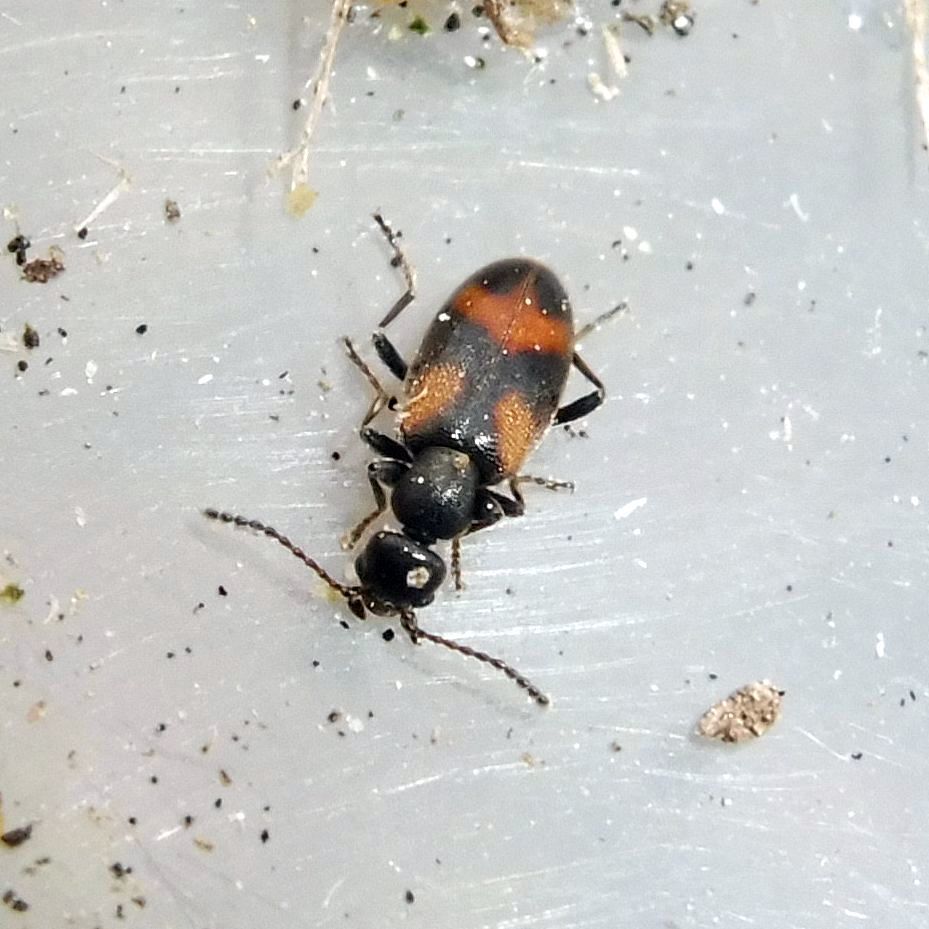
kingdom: Animalia
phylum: Arthropoda
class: Insecta
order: Coleoptera
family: Anthicidae
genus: Anthicus
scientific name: Anthicus antherinus
